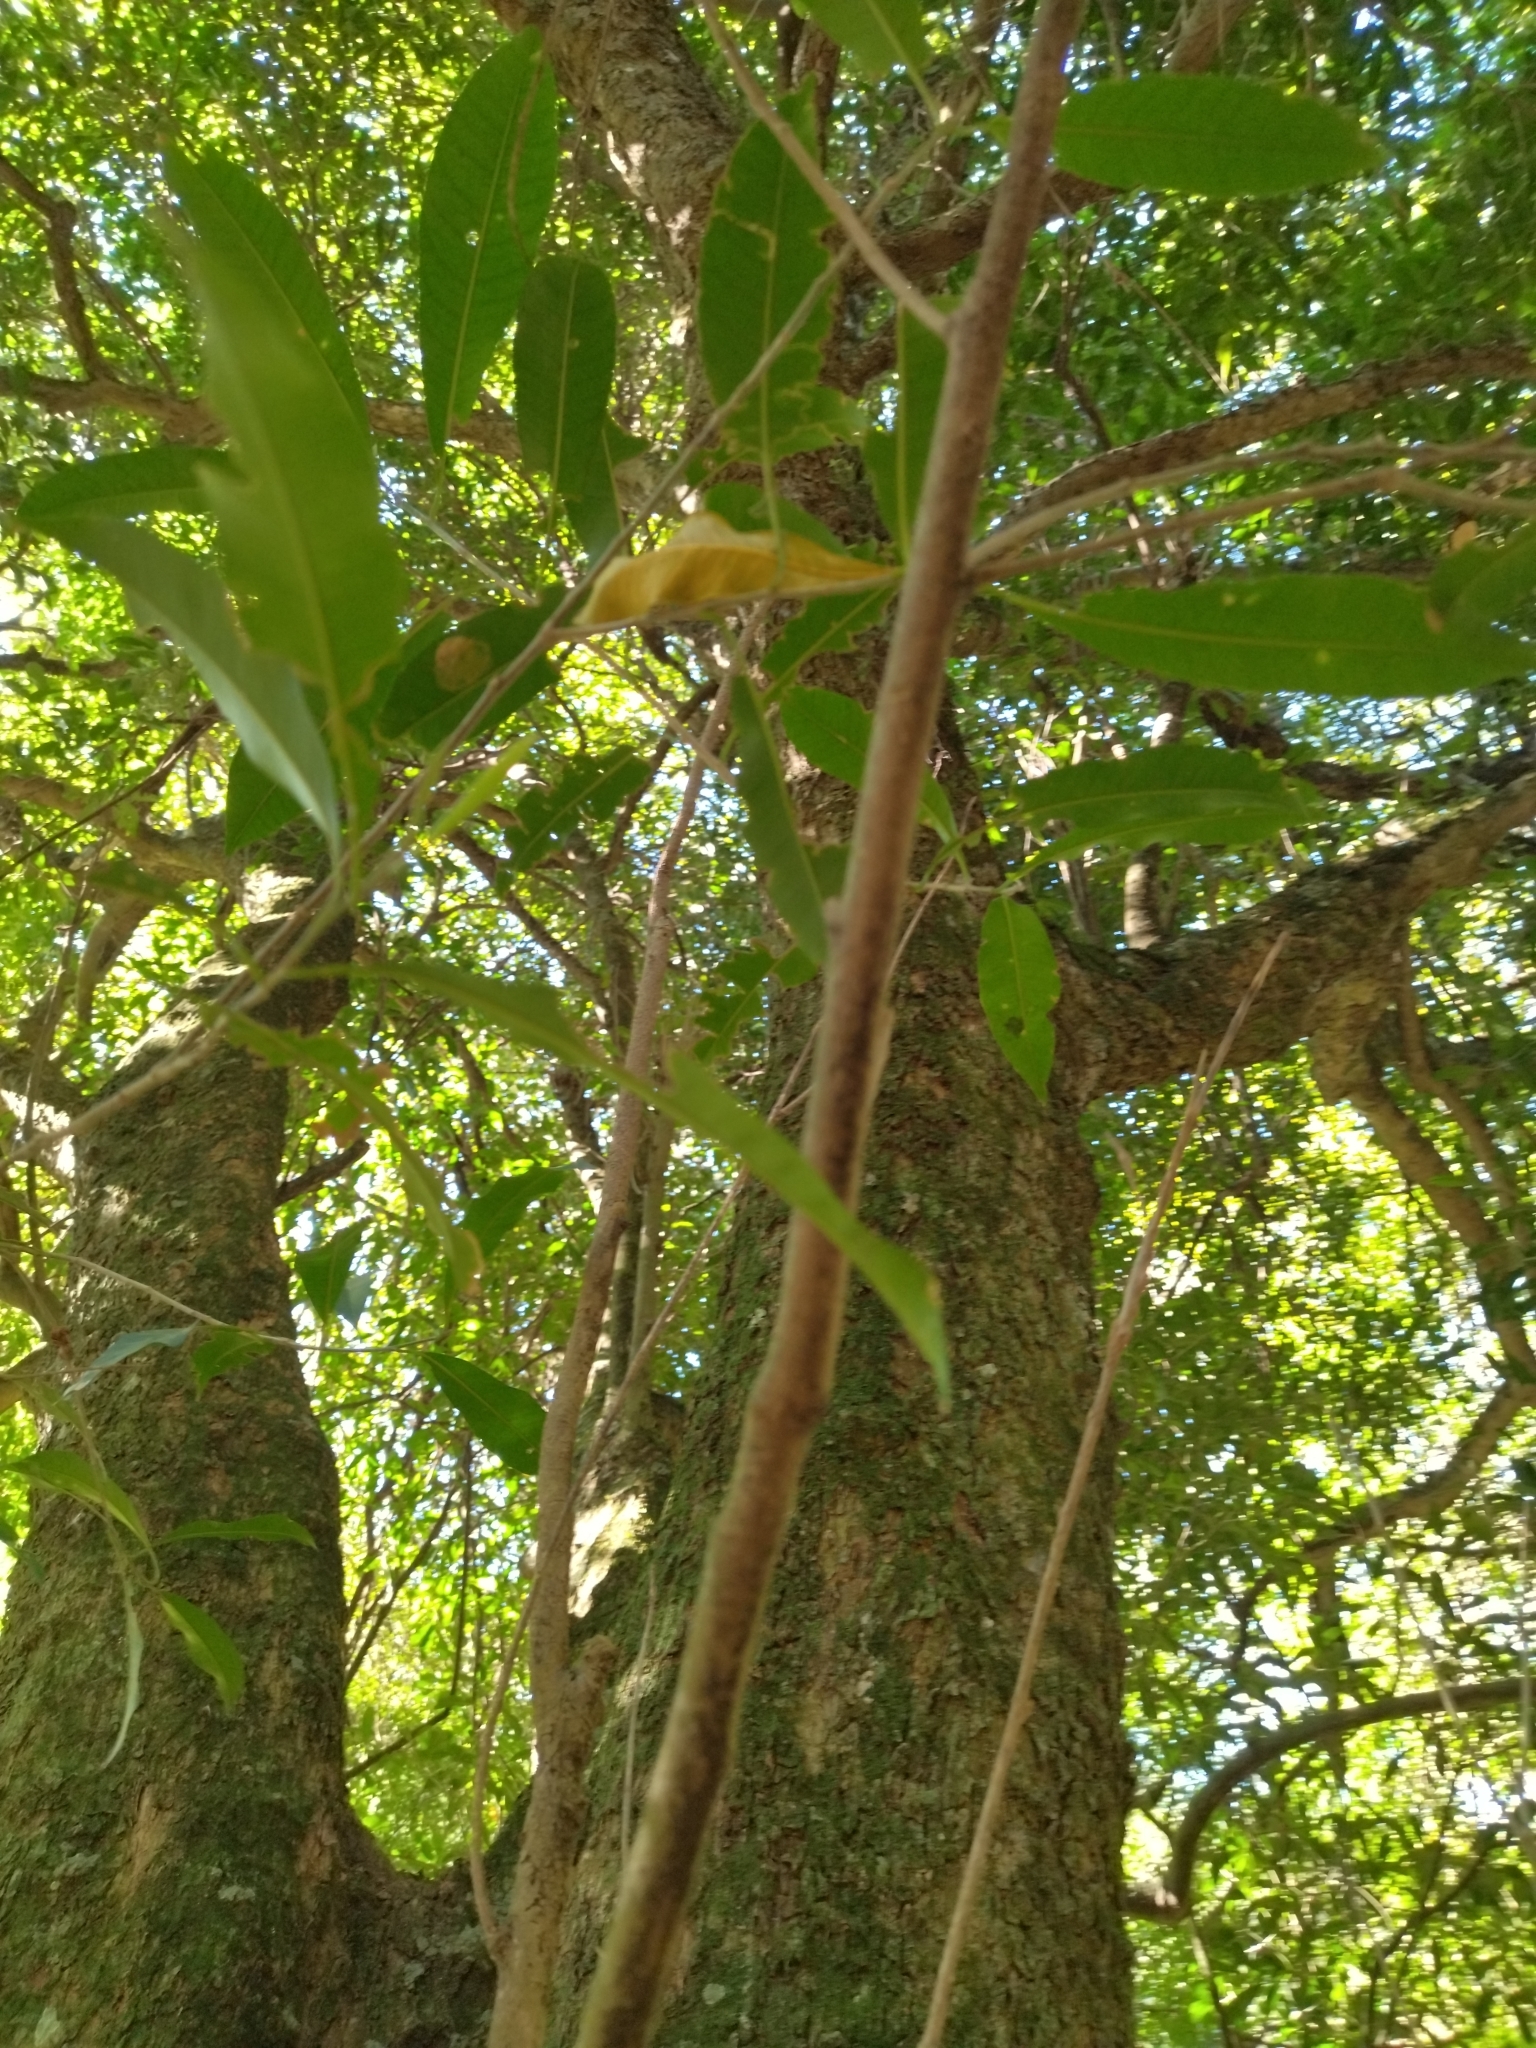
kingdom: Plantae
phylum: Tracheophyta
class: Magnoliopsida
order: Ericales
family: Sapotaceae
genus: Chrysophyllum
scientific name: Chrysophyllum gonocarpum
